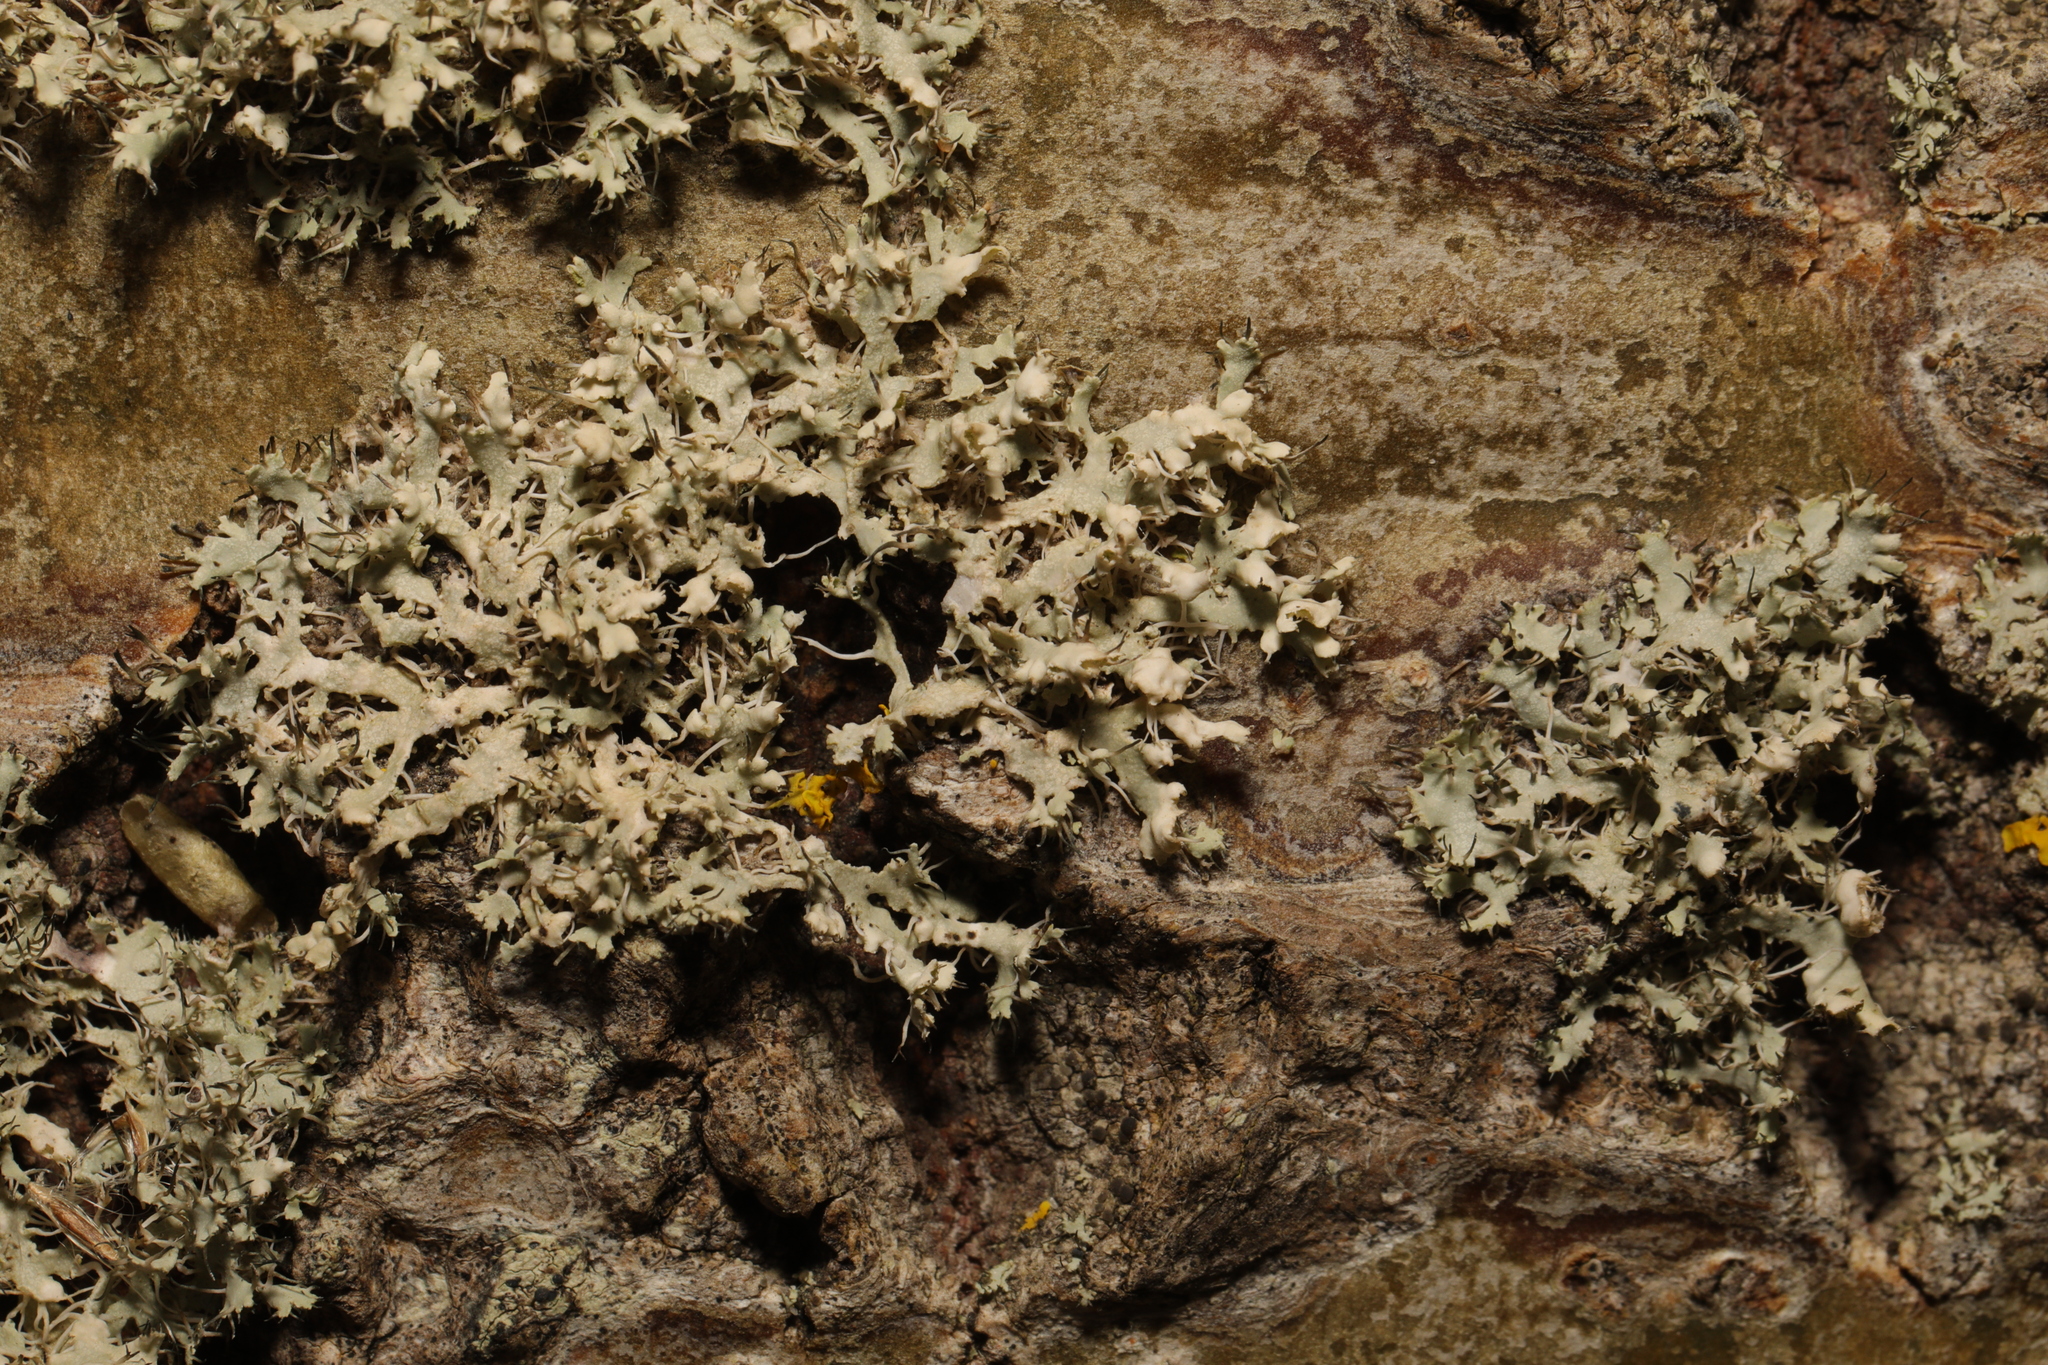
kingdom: Fungi
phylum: Ascomycota
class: Lecanoromycetes
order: Caliciales
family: Physciaceae
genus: Physcia
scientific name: Physcia adscendens
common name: Hooded rosette lichen
